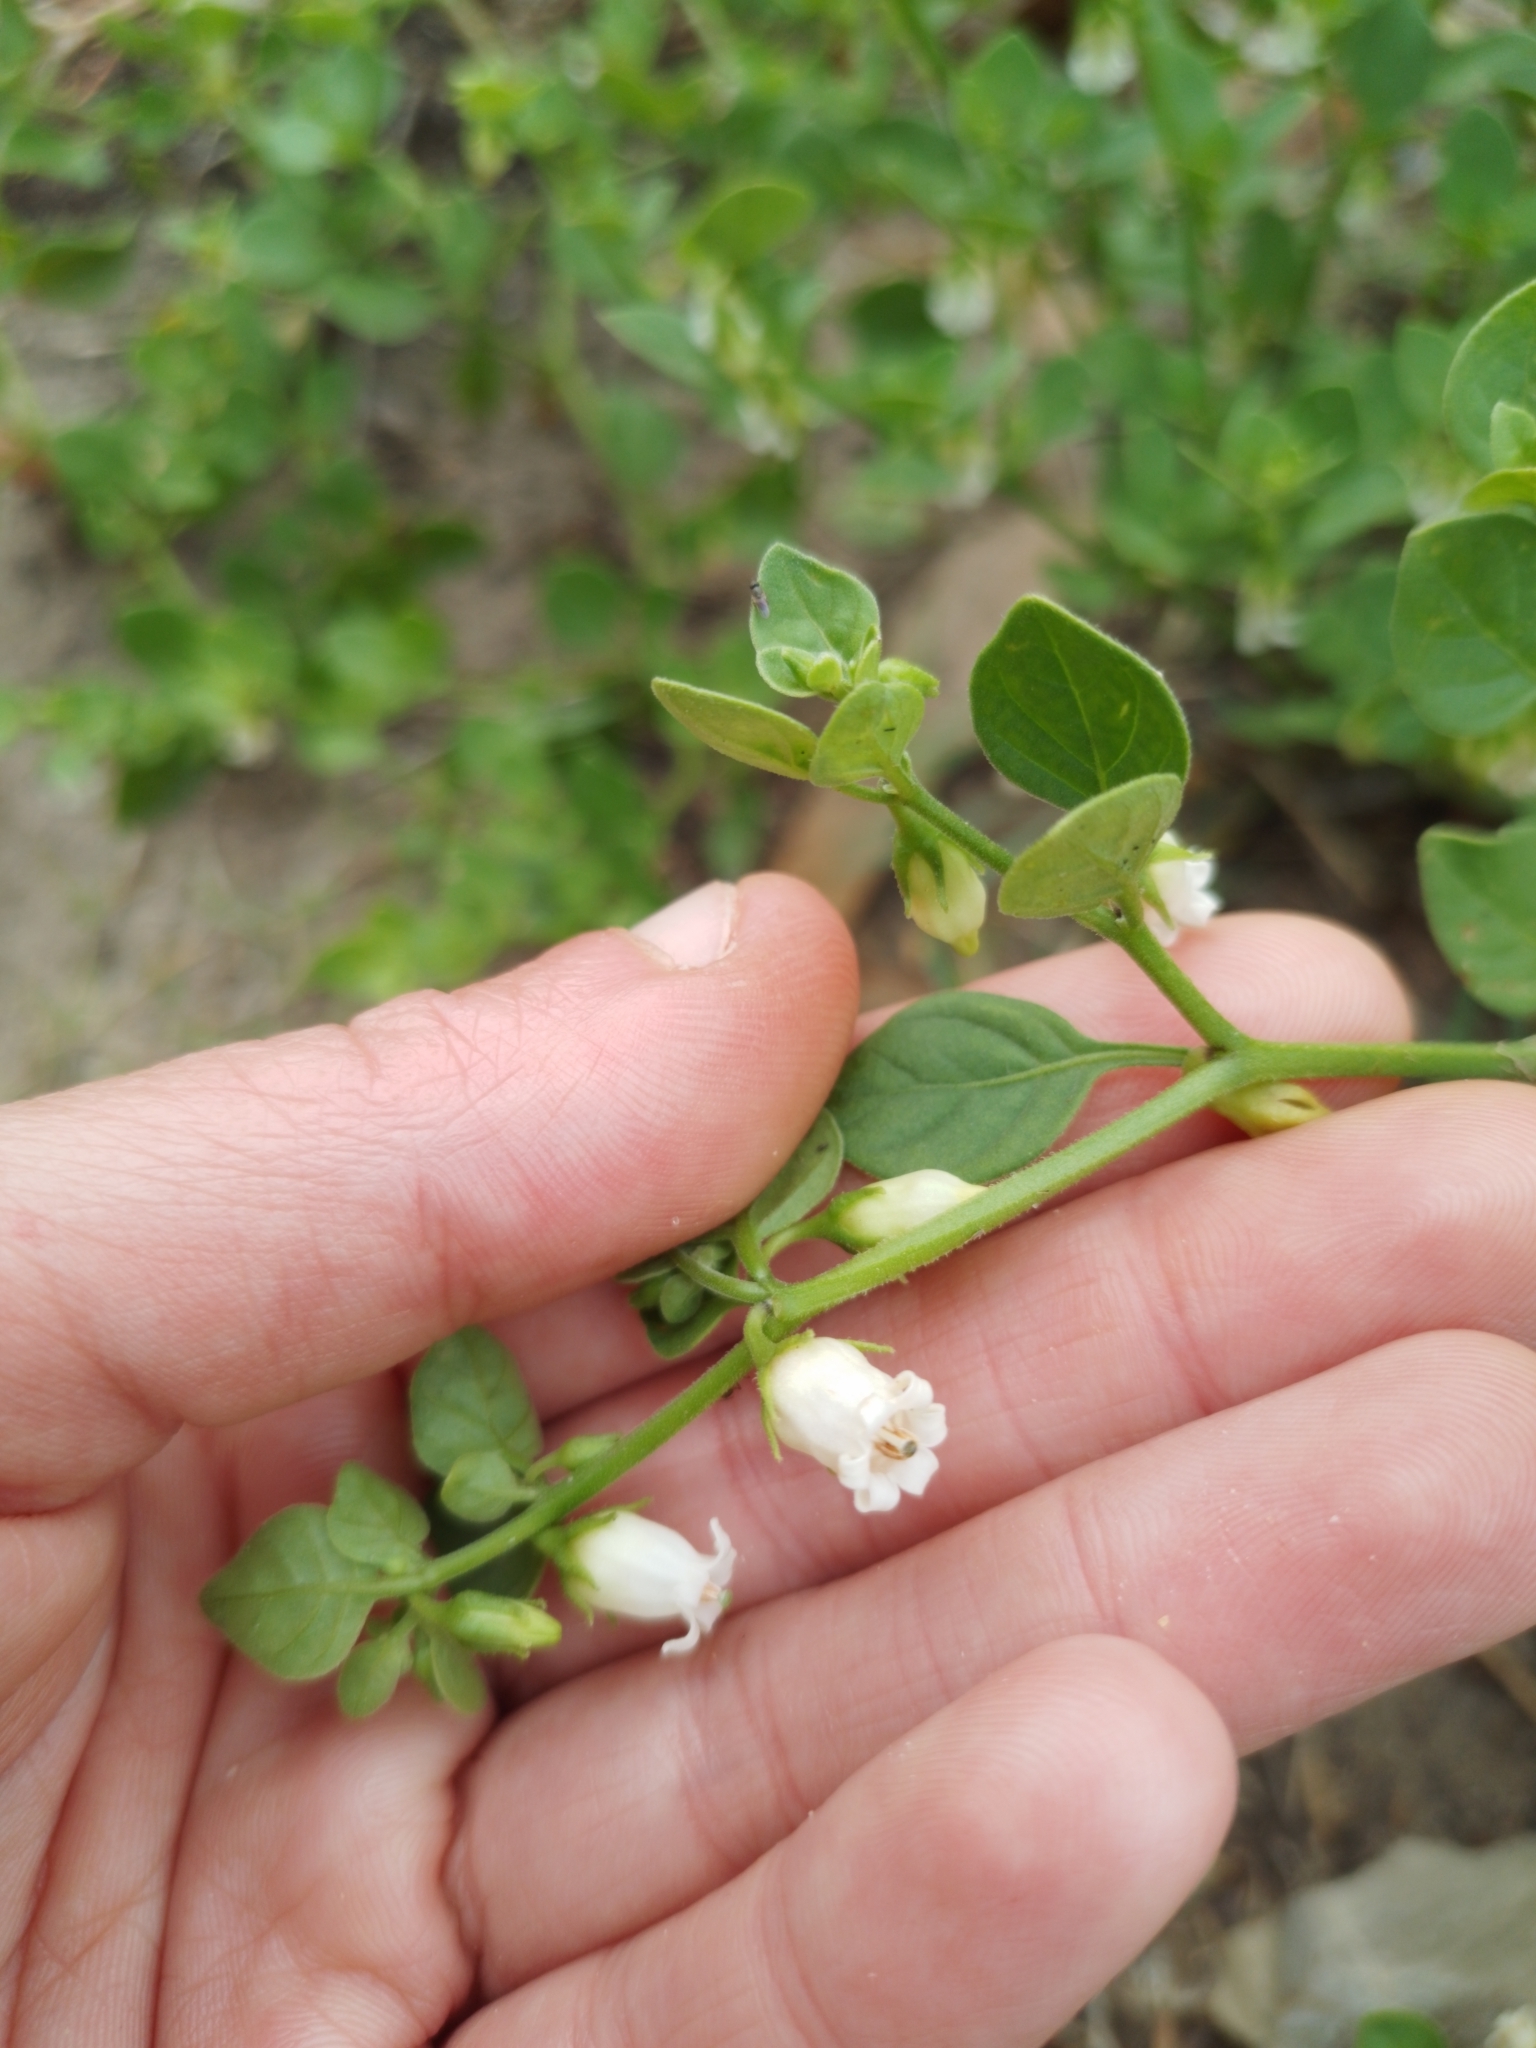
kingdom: Plantae
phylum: Tracheophyta
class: Magnoliopsida
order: Solanales
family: Solanaceae
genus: Salpichroa
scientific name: Salpichroa origanifolia
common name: Lily-of-the-valley-vine
